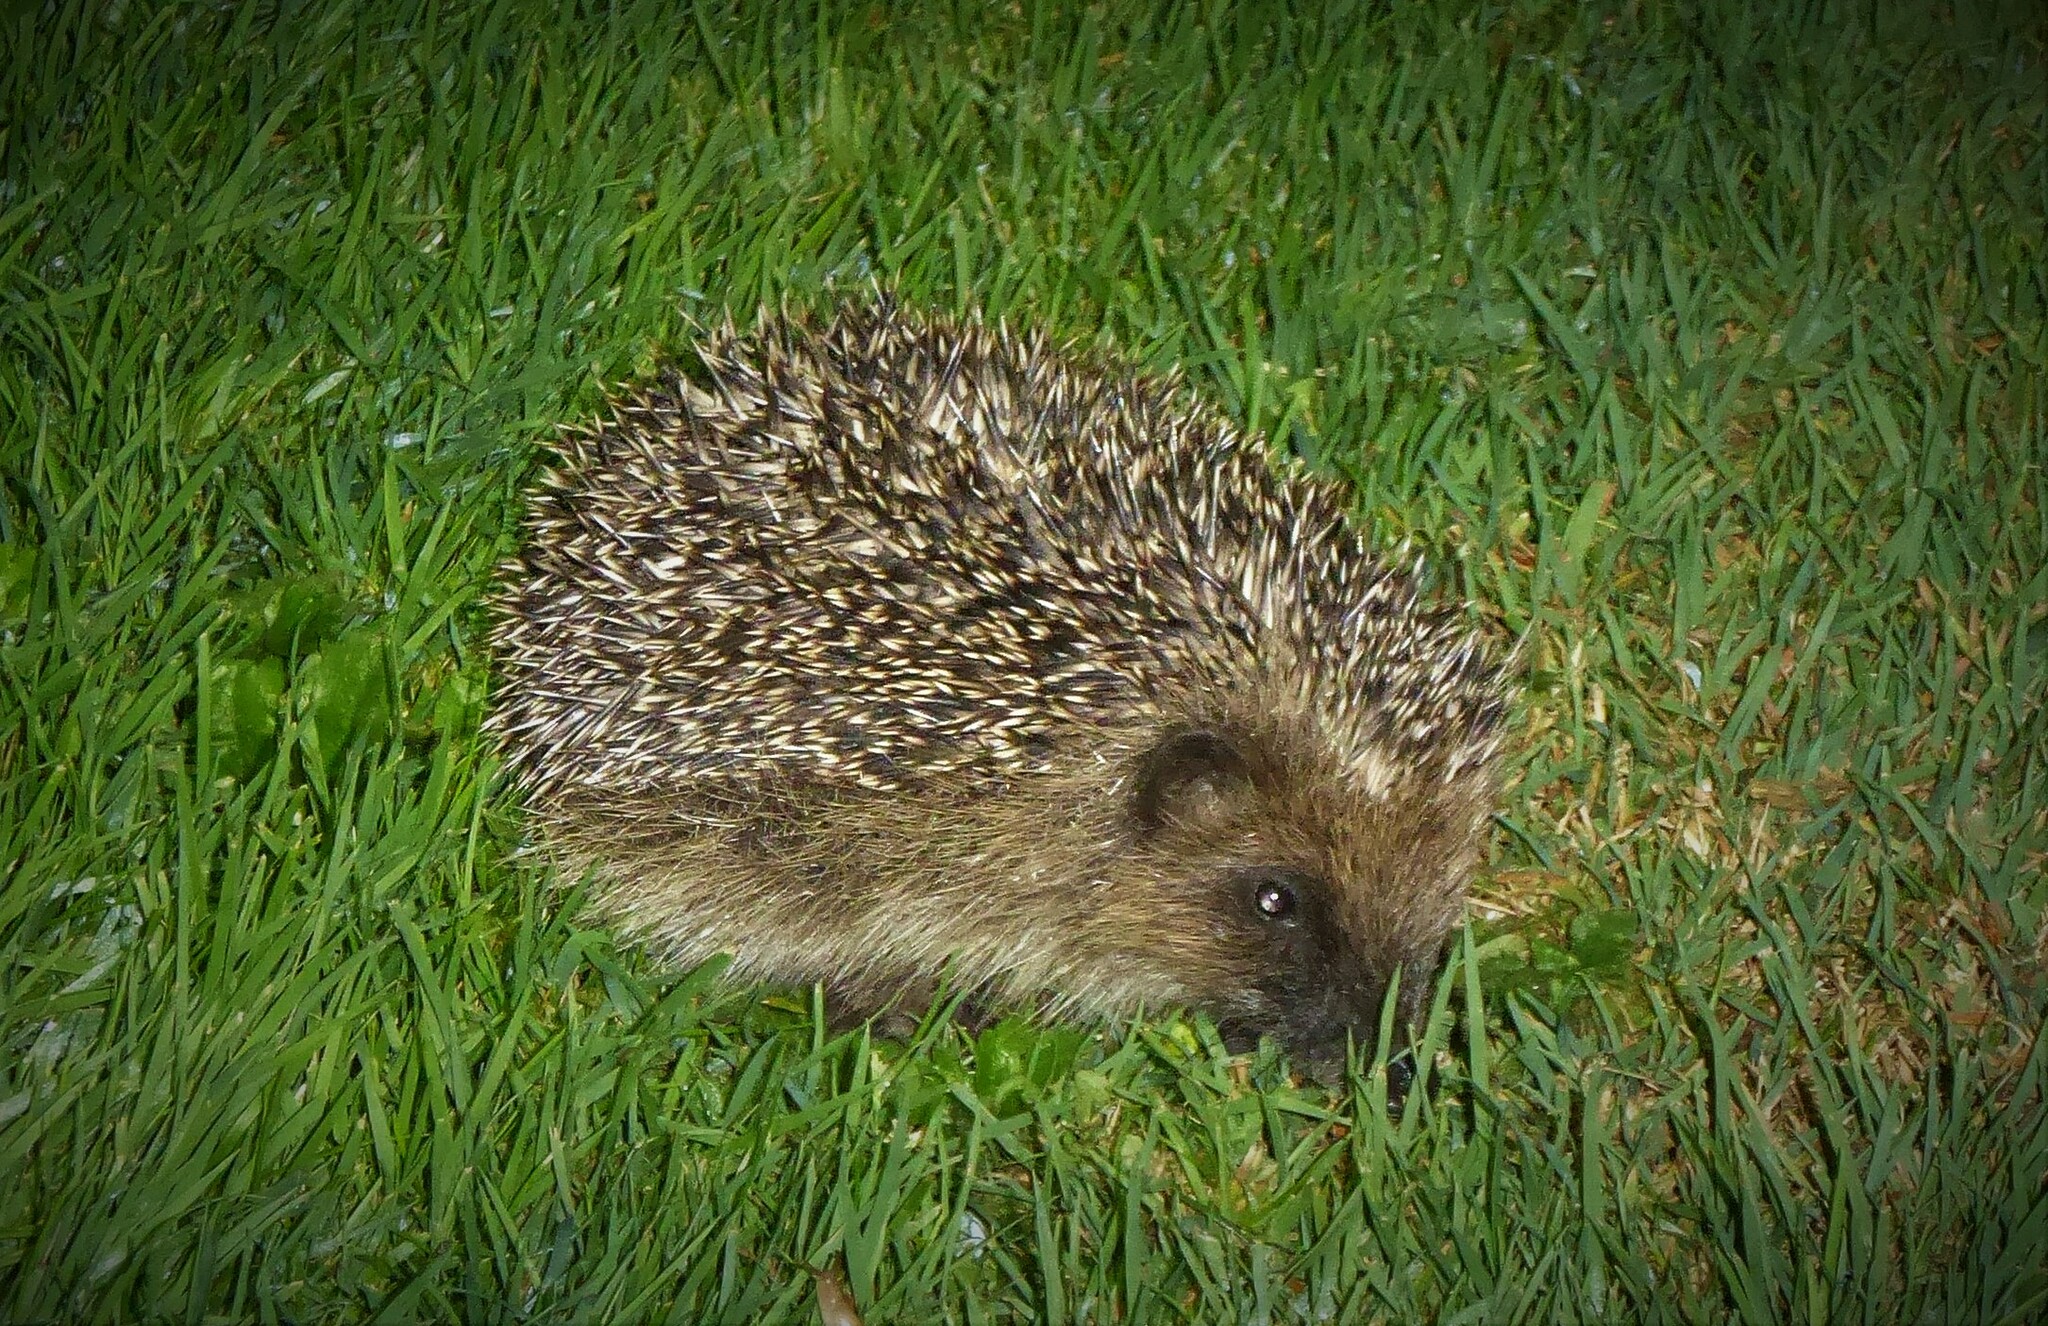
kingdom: Animalia
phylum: Chordata
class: Mammalia
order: Erinaceomorpha
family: Erinaceidae
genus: Erinaceus
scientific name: Erinaceus europaeus
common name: West european hedgehog
